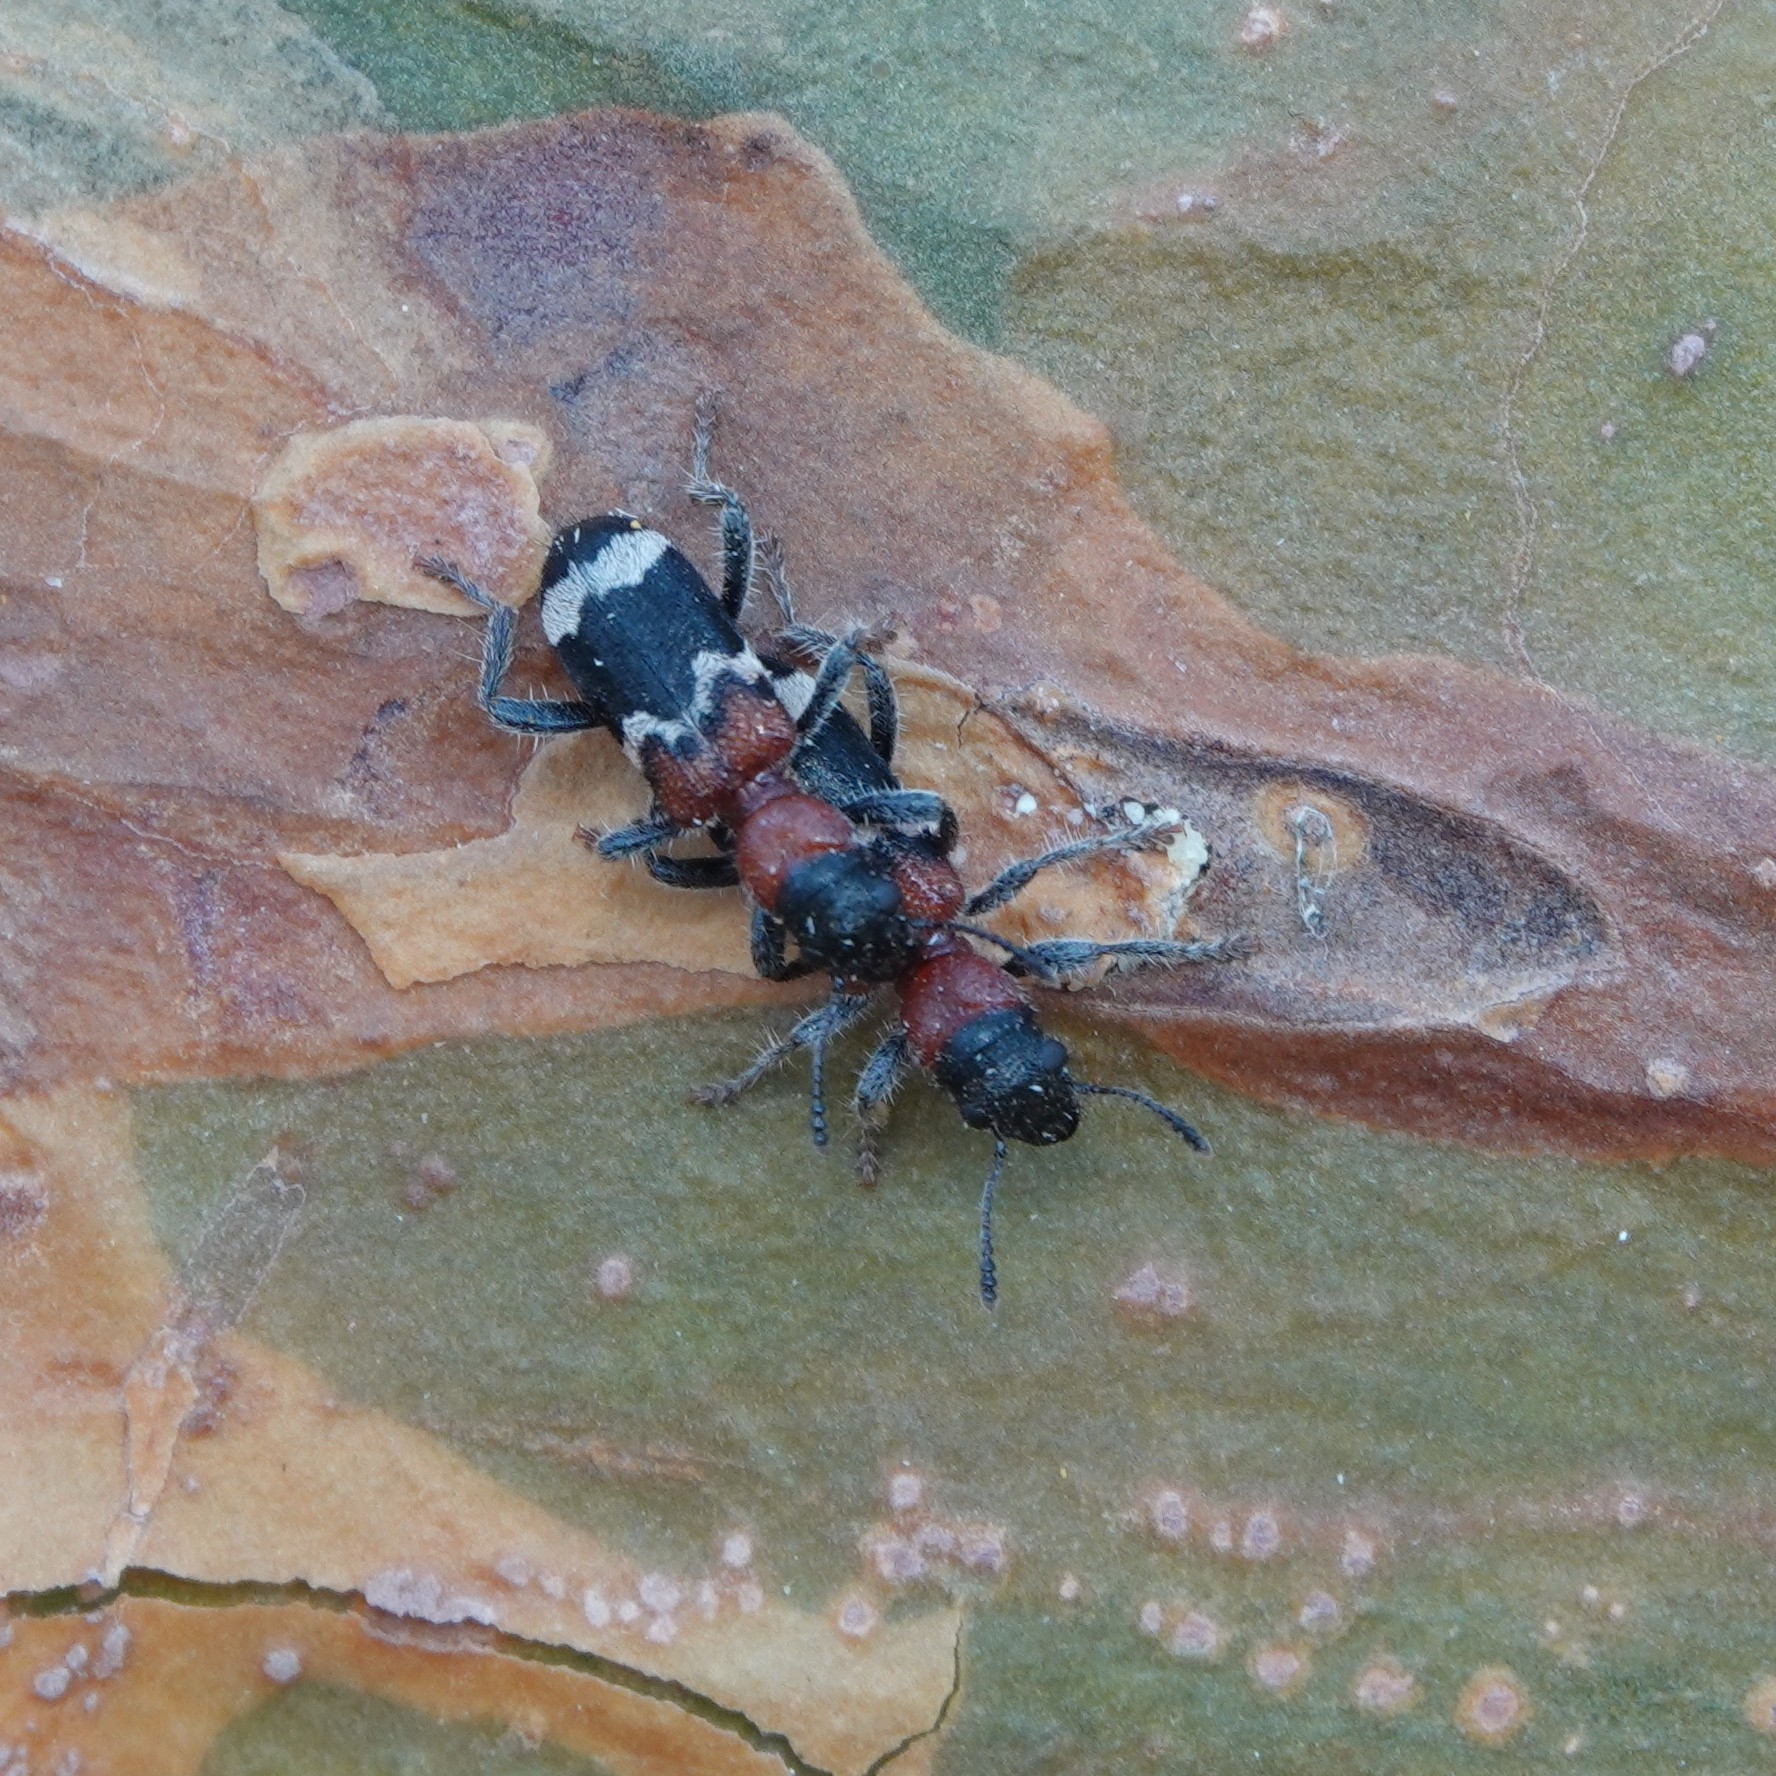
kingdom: Animalia
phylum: Arthropoda
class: Insecta
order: Coleoptera
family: Cleridae
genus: Thanasimus
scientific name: Thanasimus formicarius
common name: Ant beetle
